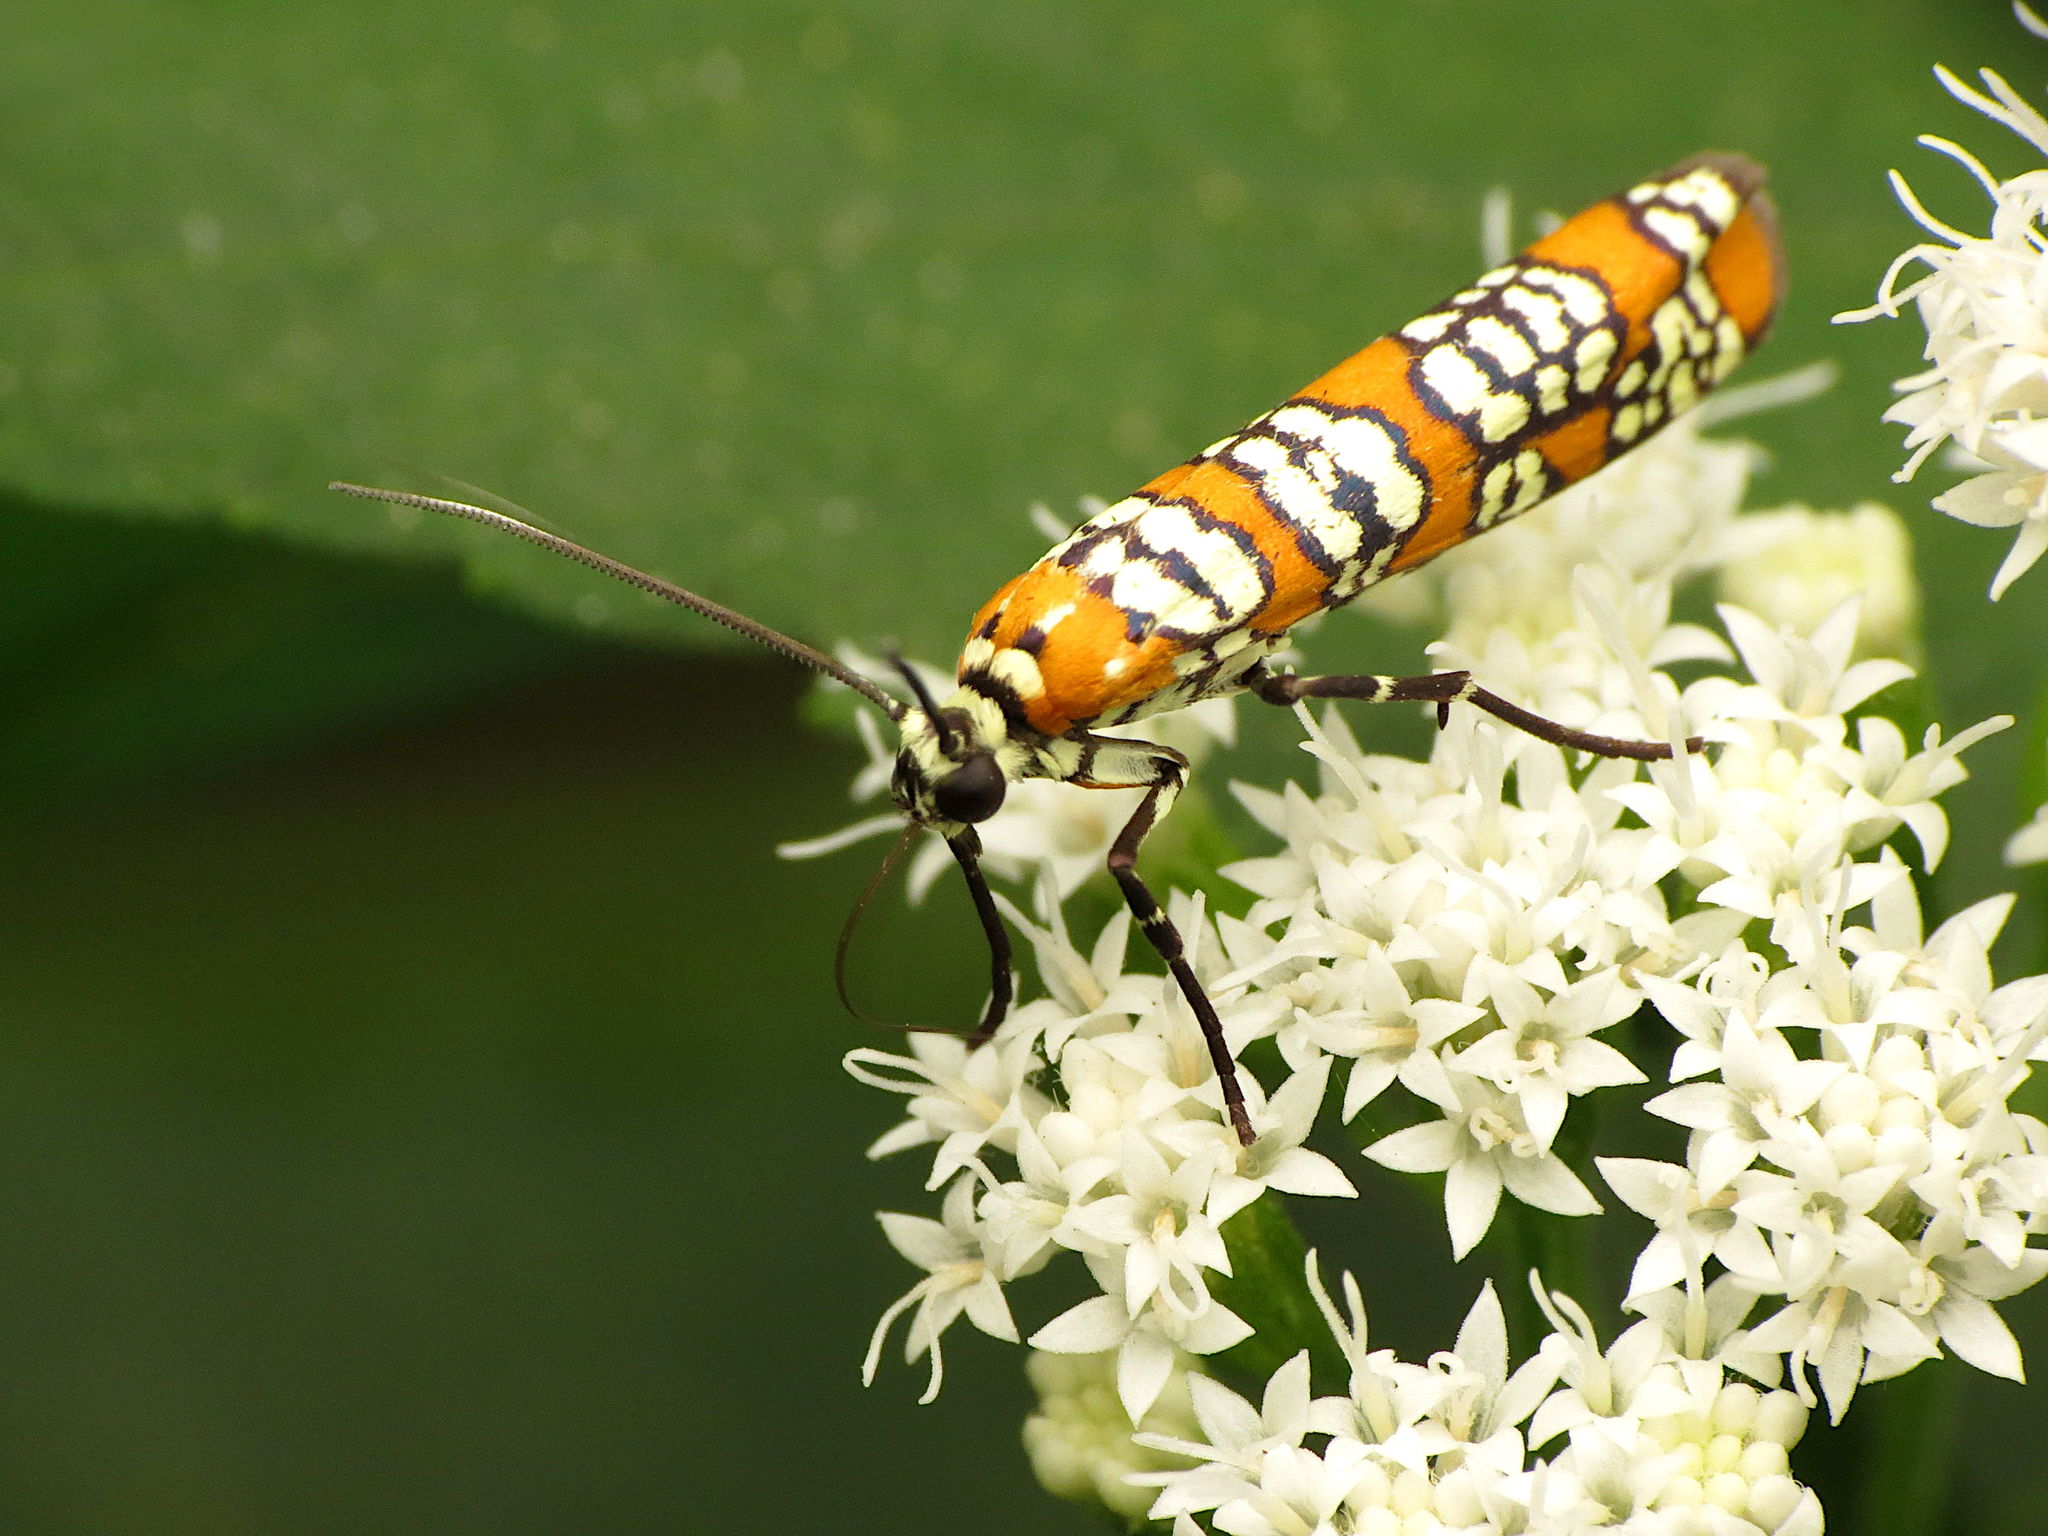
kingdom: Animalia
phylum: Arthropoda
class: Insecta
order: Lepidoptera
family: Attevidae
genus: Atteva
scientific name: Atteva punctella
